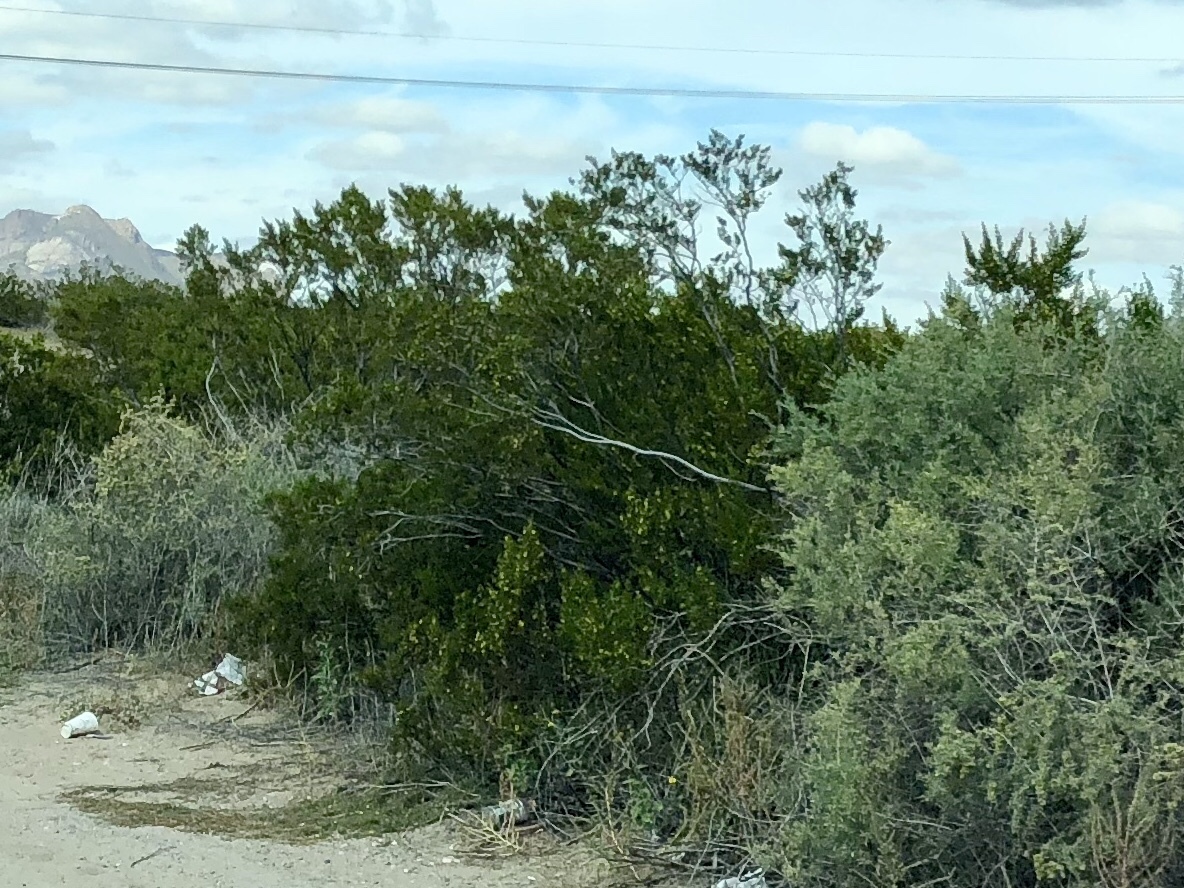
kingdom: Plantae
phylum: Tracheophyta
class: Magnoliopsida
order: Zygophyllales
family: Zygophyllaceae
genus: Larrea
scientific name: Larrea tridentata
